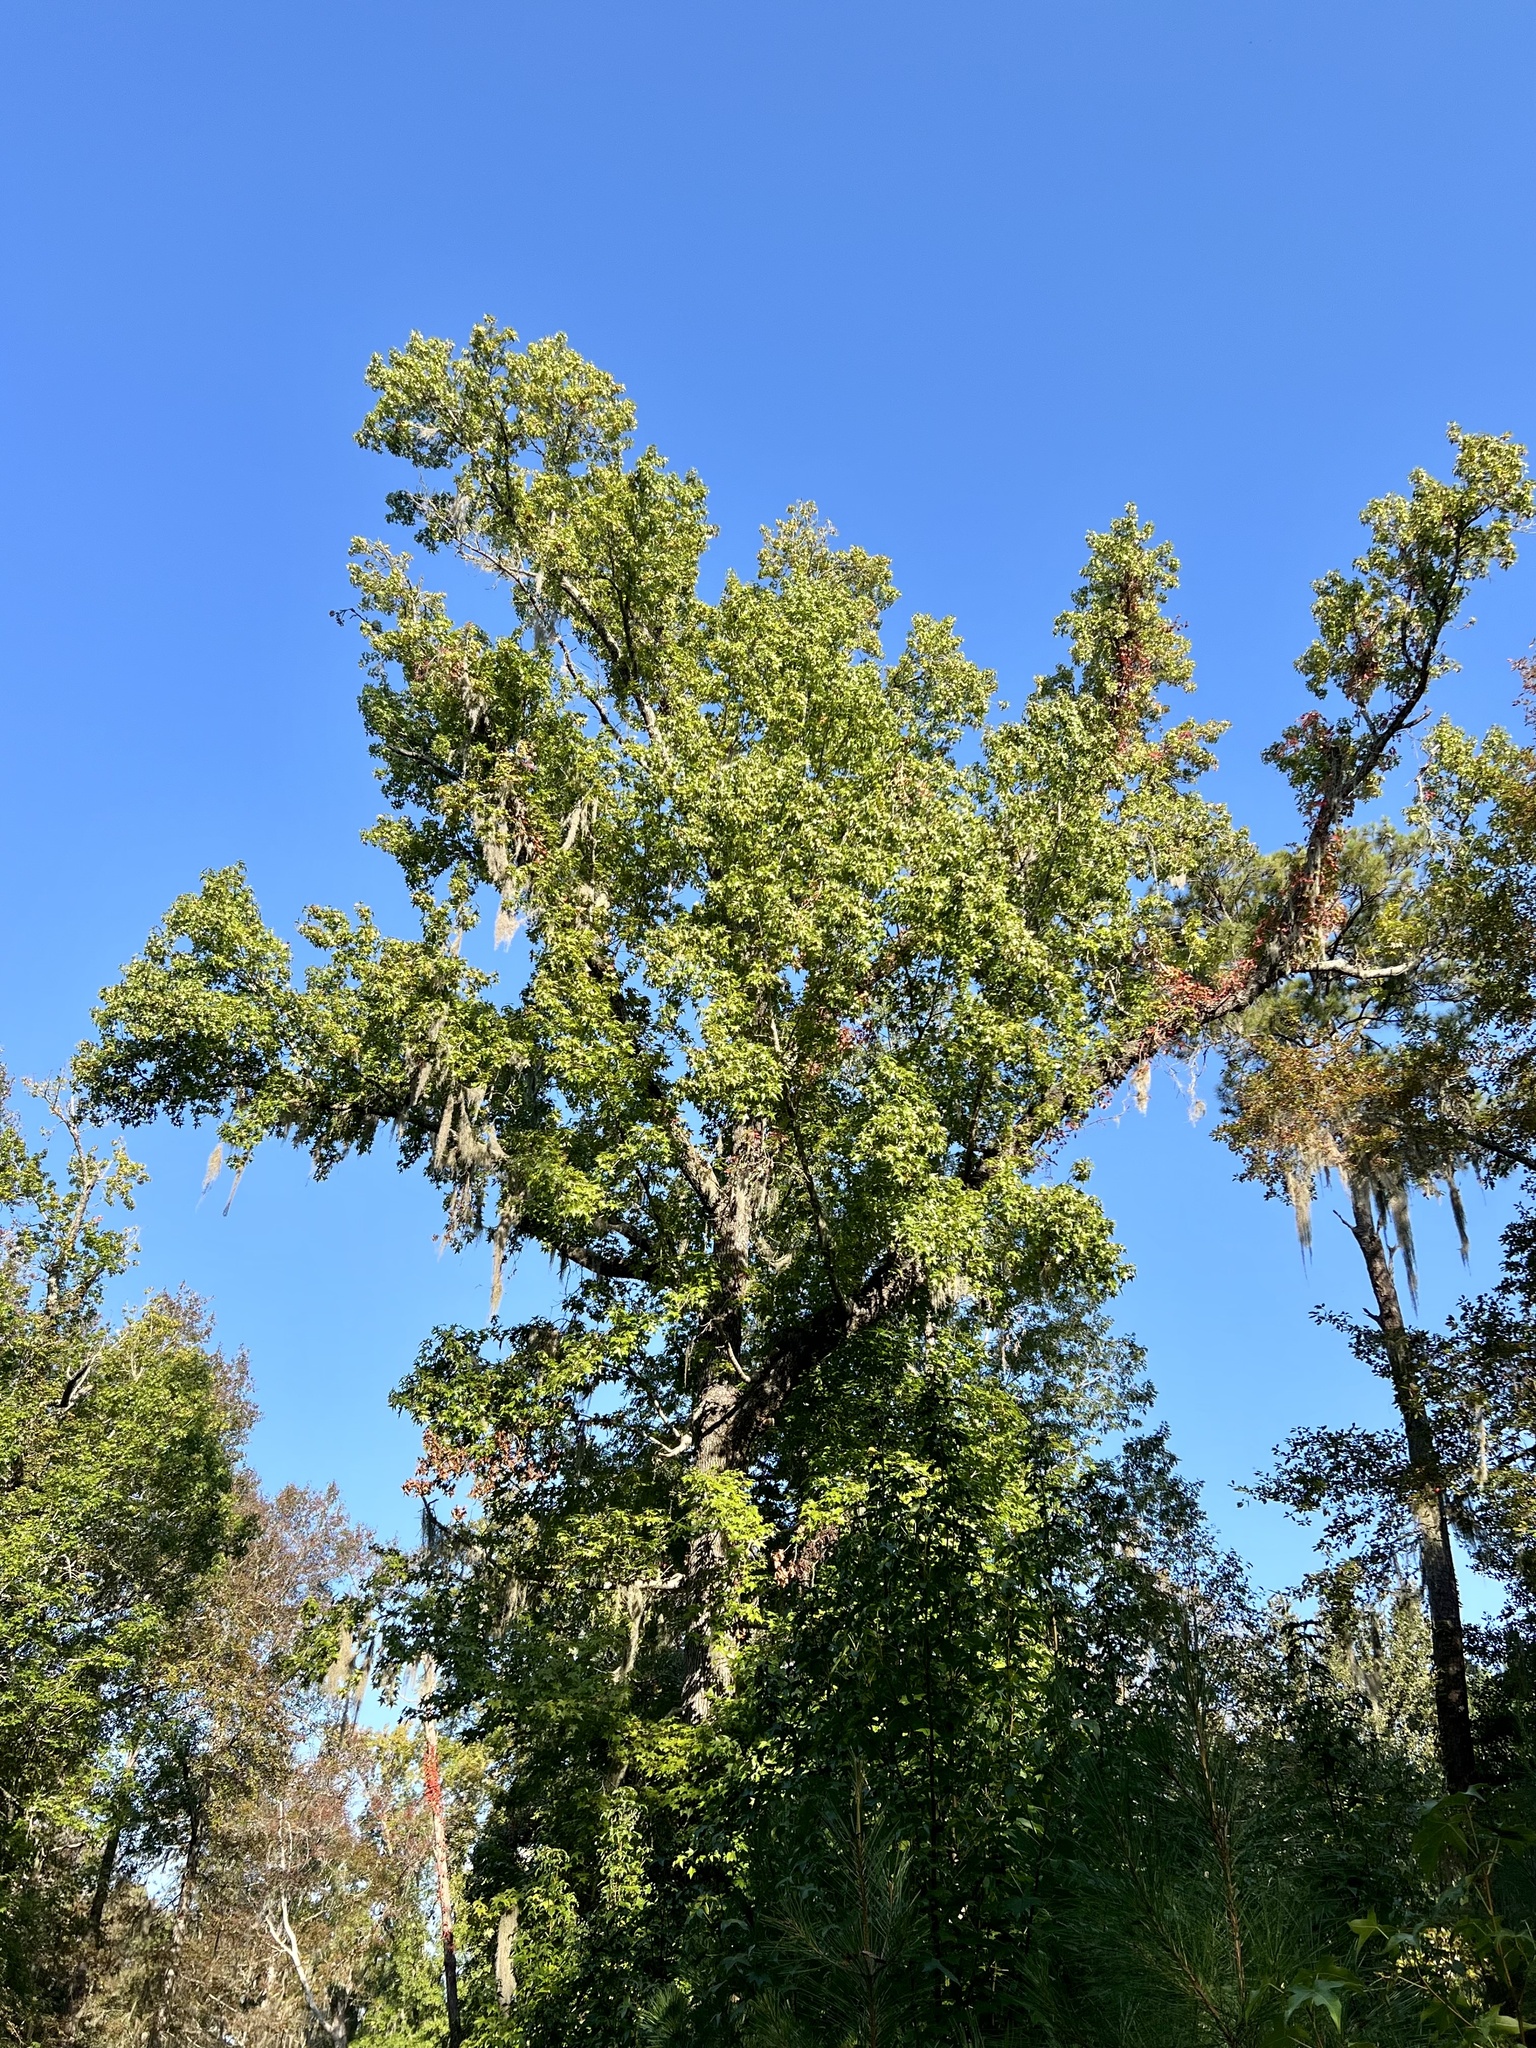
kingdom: Plantae
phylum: Tracheophyta
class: Magnoliopsida
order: Saxifragales
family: Altingiaceae
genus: Liquidambar
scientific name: Liquidambar styraciflua
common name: Sweet gum
